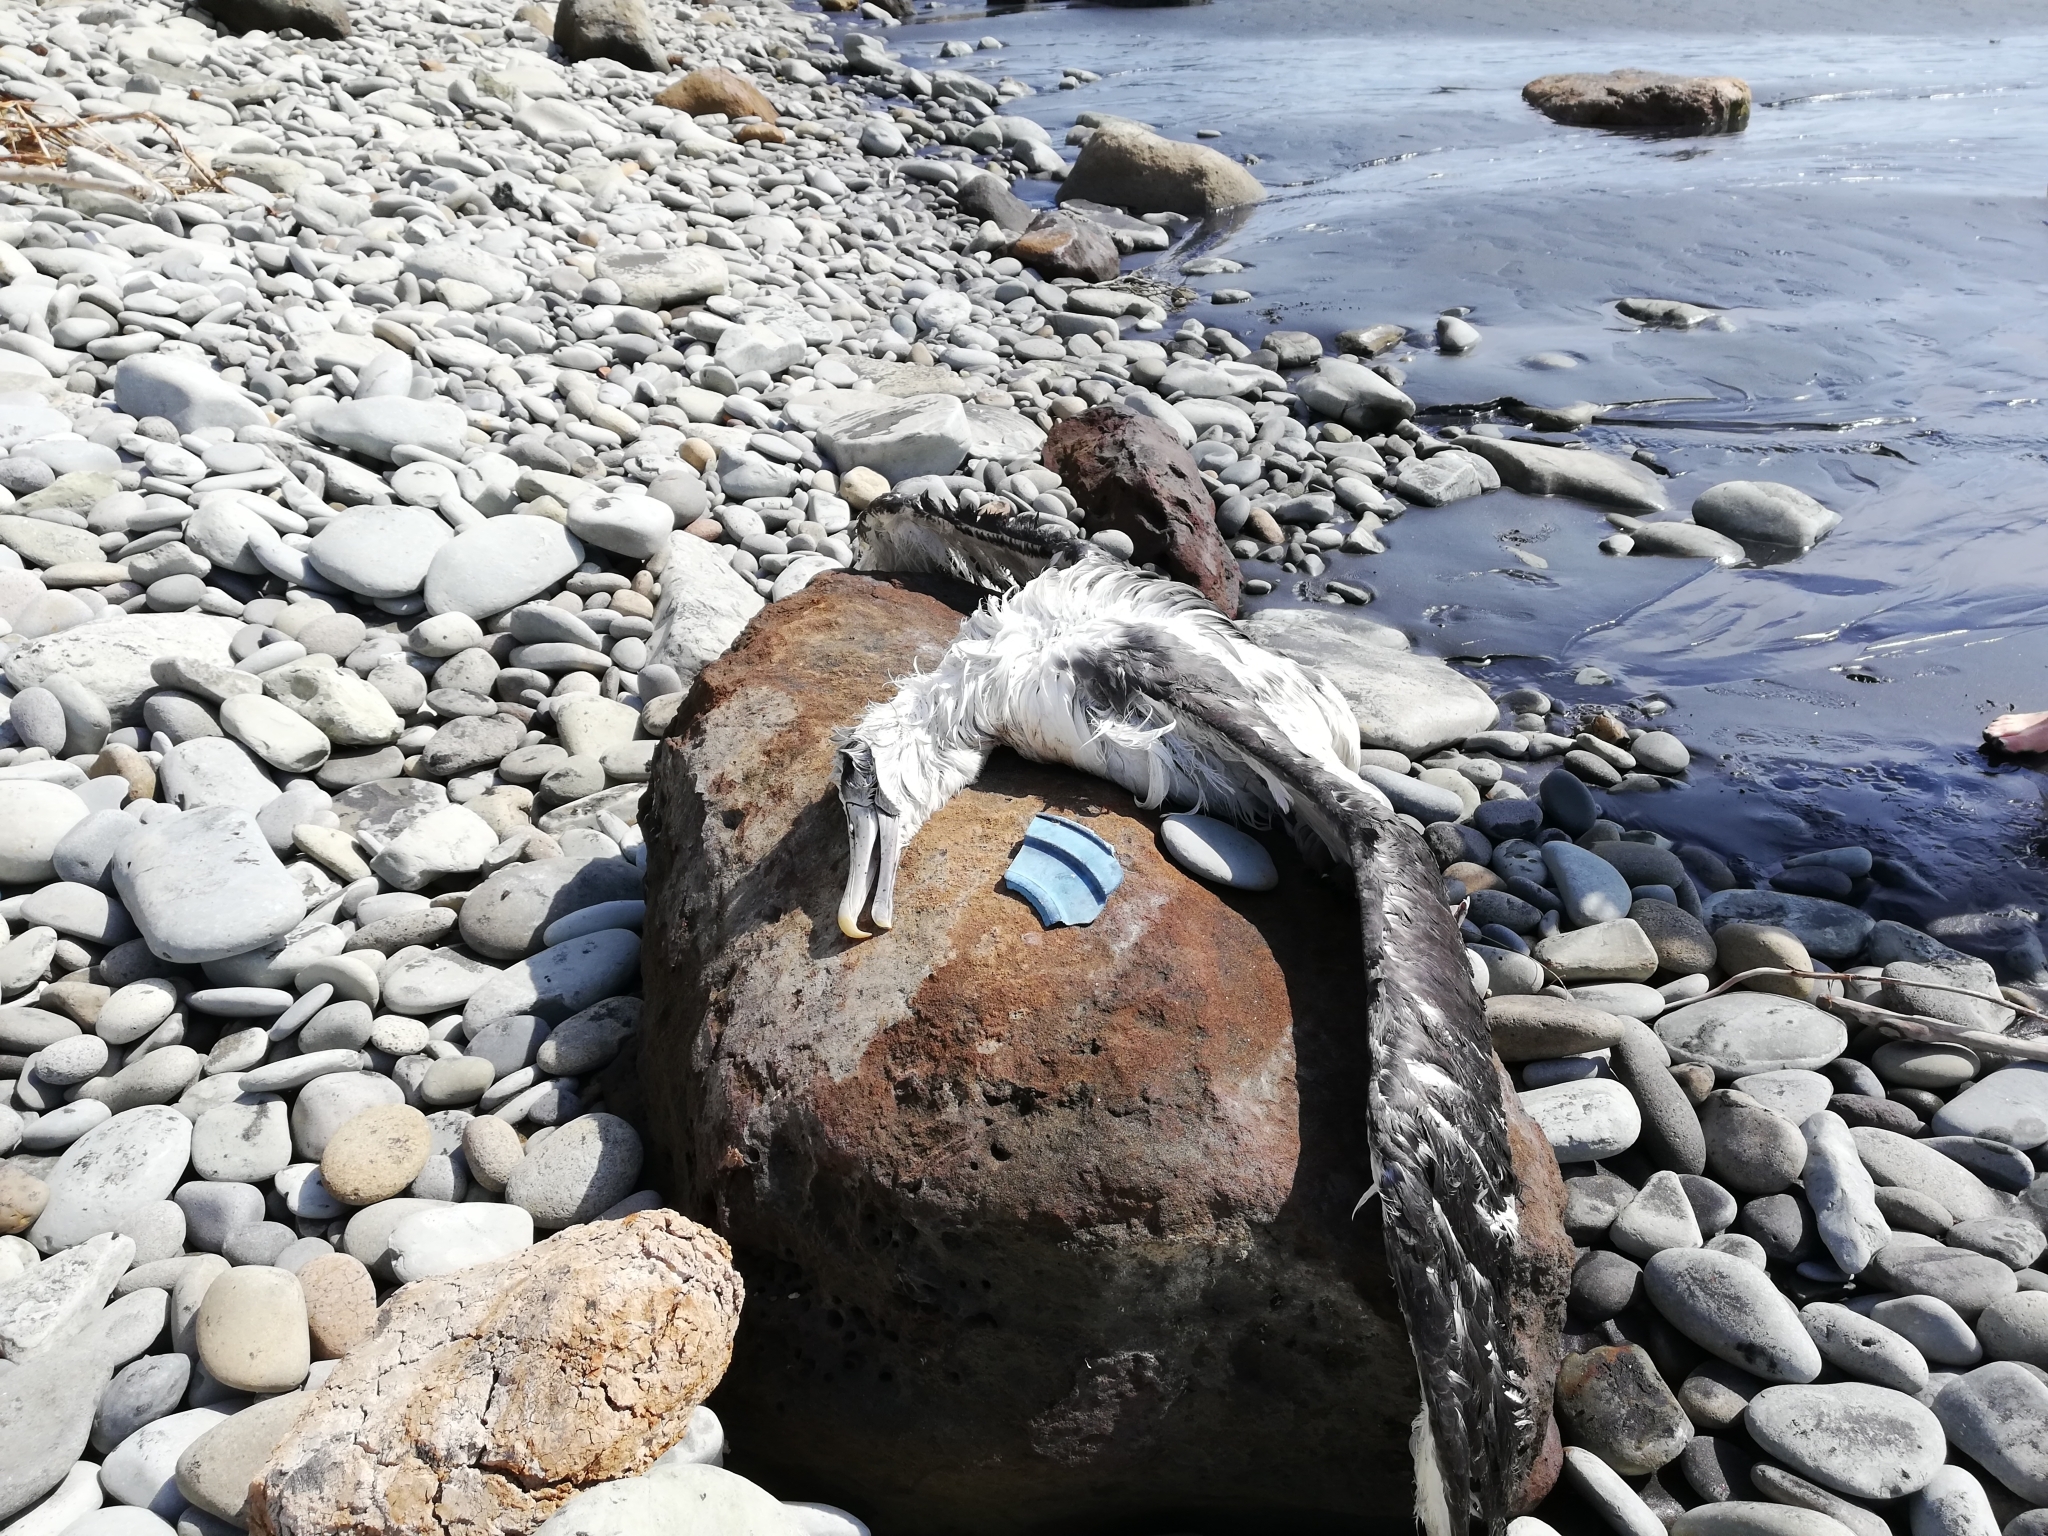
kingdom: Animalia
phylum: Chordata
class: Aves
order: Procellariiformes
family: Diomedeidae
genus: Thalassarche
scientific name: Thalassarche cauta
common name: Shy albatross
